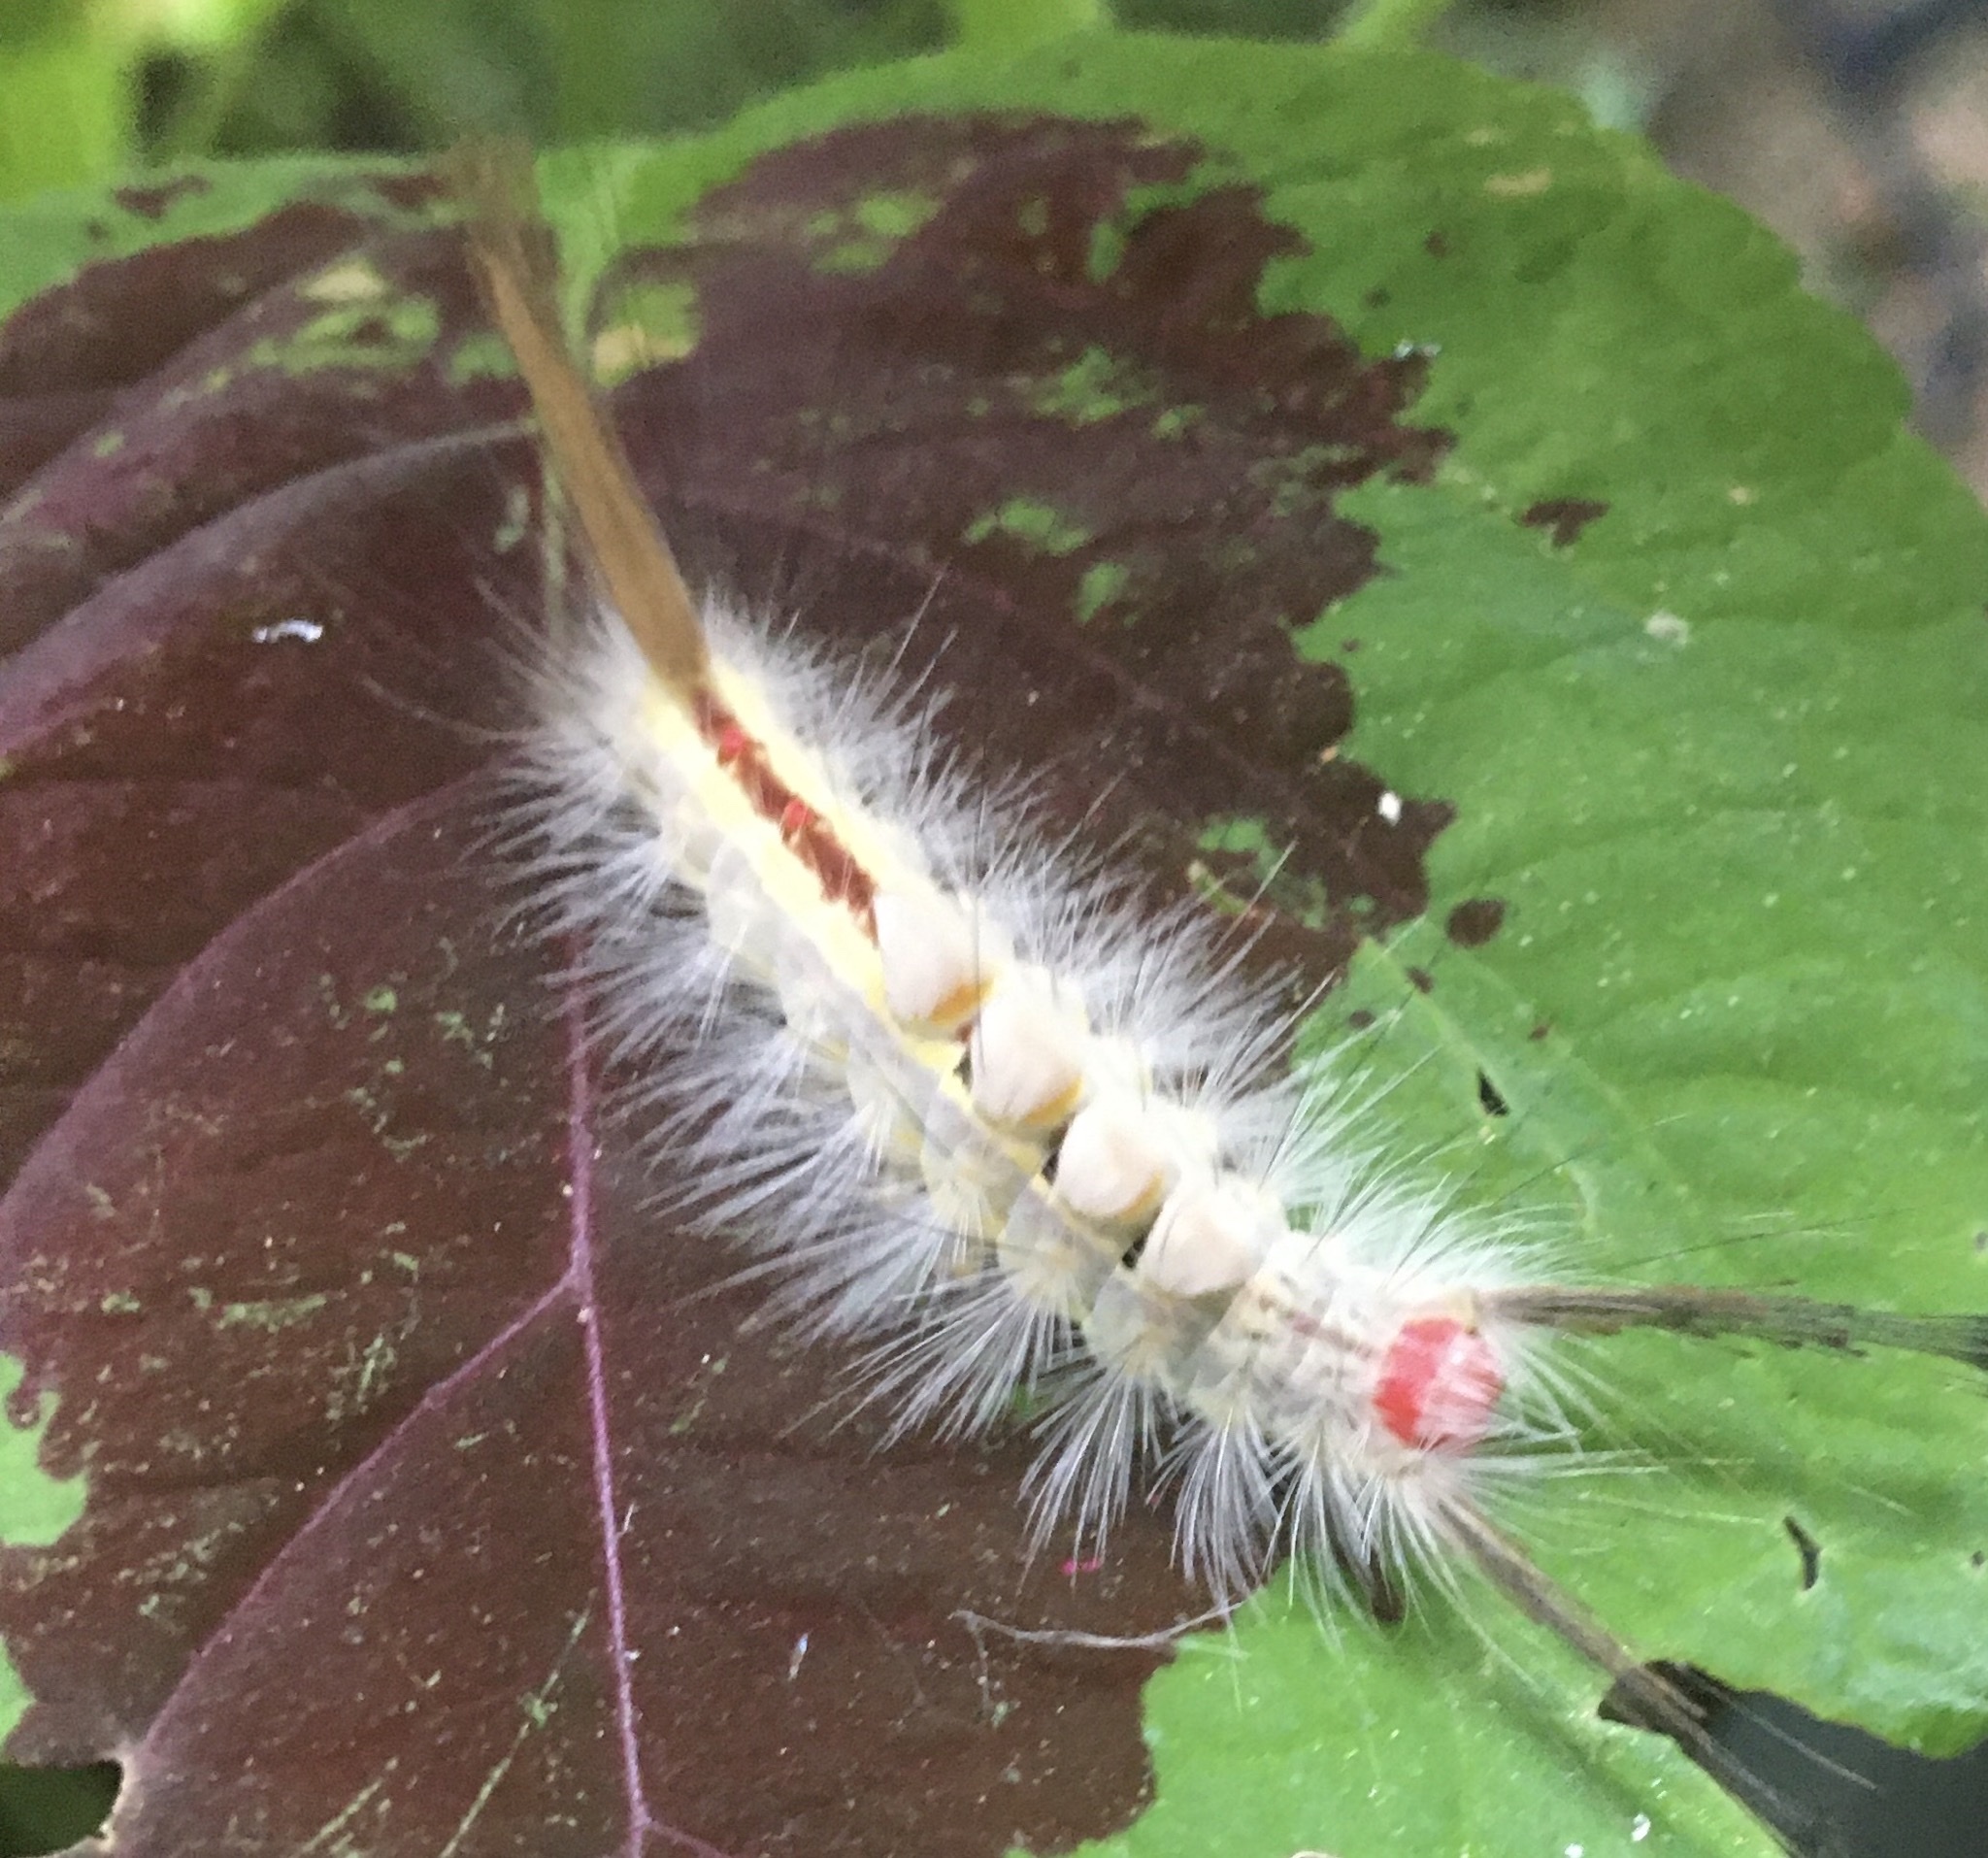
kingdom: Animalia
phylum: Arthropoda
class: Insecta
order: Lepidoptera
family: Erebidae
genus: Orgyia
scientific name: Orgyia leucostigma
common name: White-marked tussock moth
